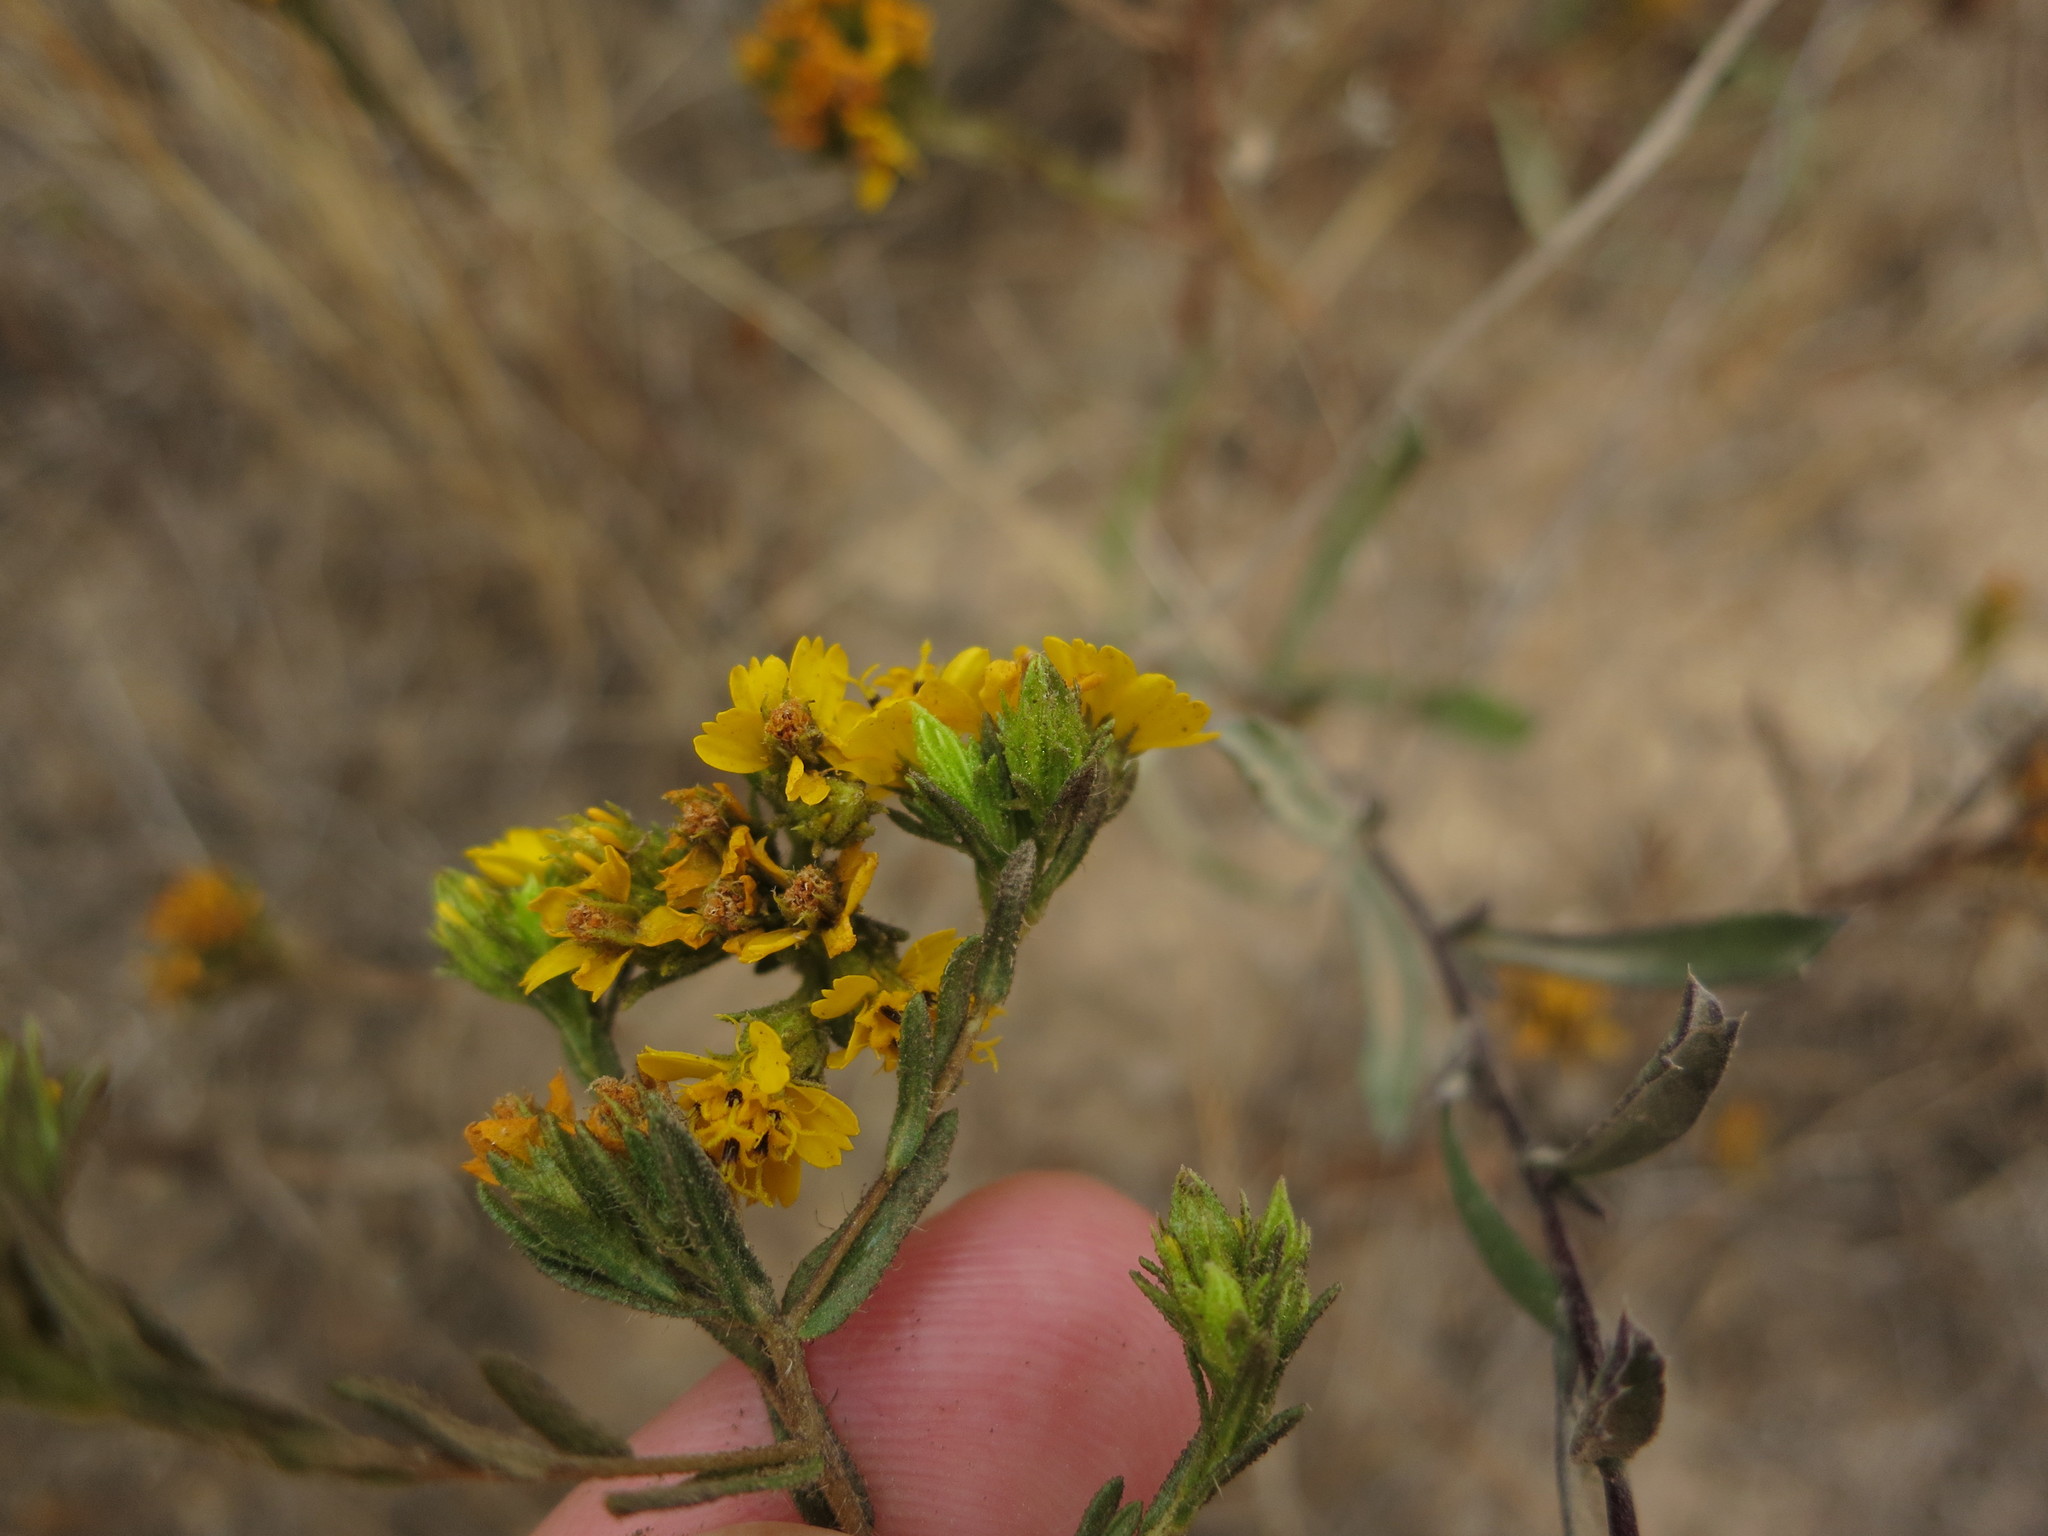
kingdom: Plantae
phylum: Tracheophyta
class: Magnoliopsida
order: Asterales
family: Asteraceae
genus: Deinandra
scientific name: Deinandra fasciculata
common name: Clustered tarweed
